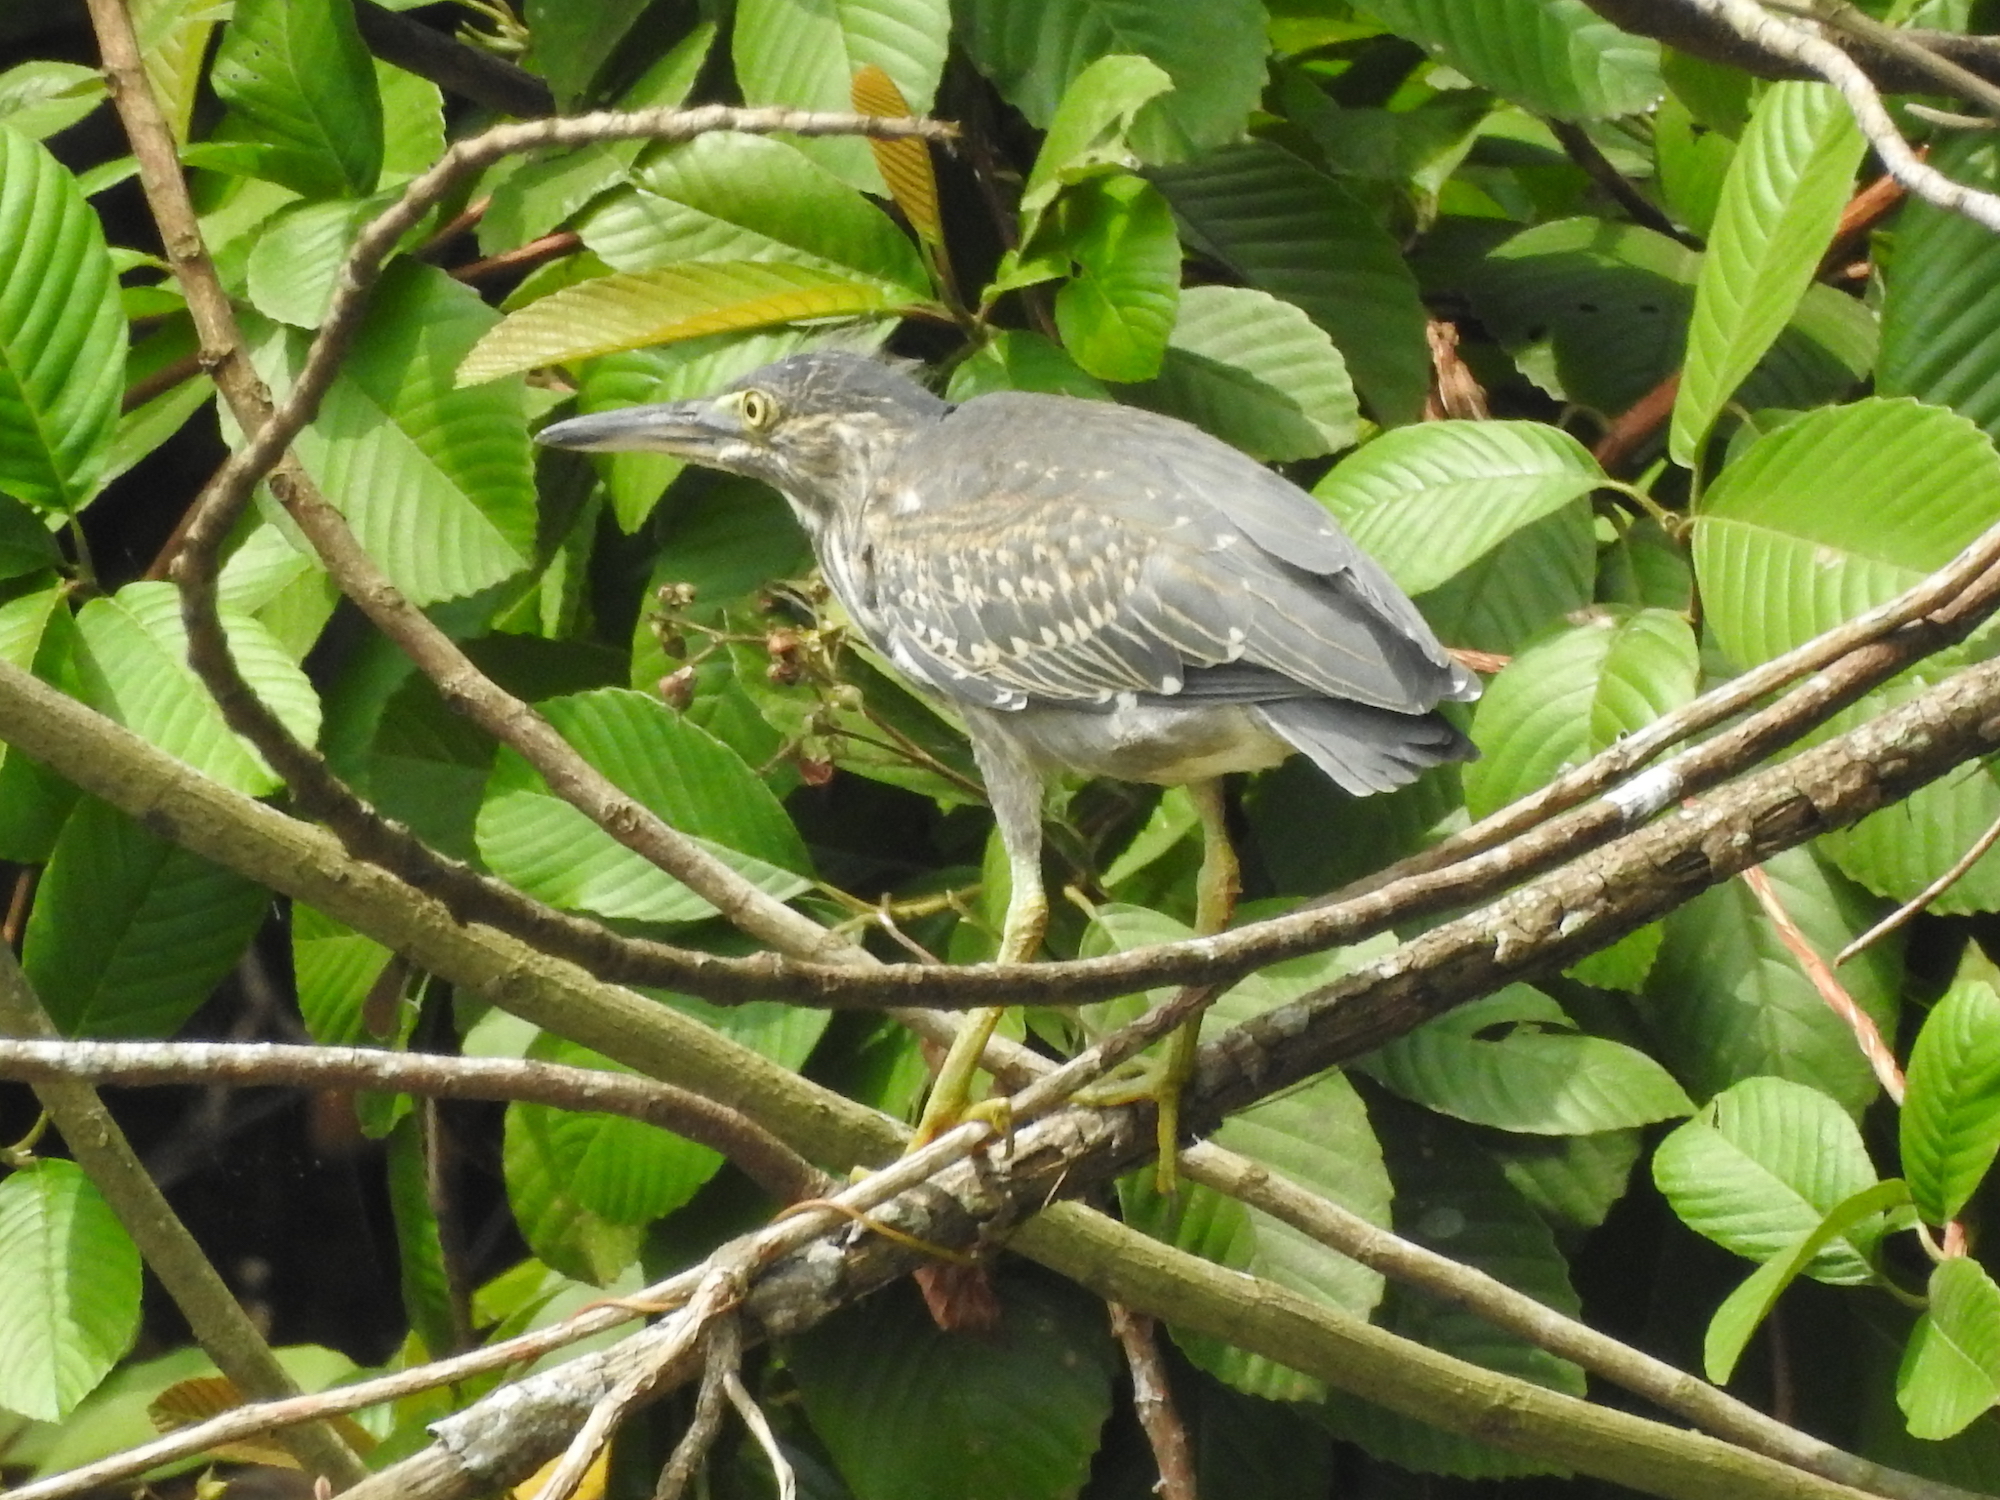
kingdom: Animalia
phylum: Chordata
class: Aves
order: Pelecaniformes
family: Ardeidae
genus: Butorides
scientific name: Butorides striata
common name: Striated heron
